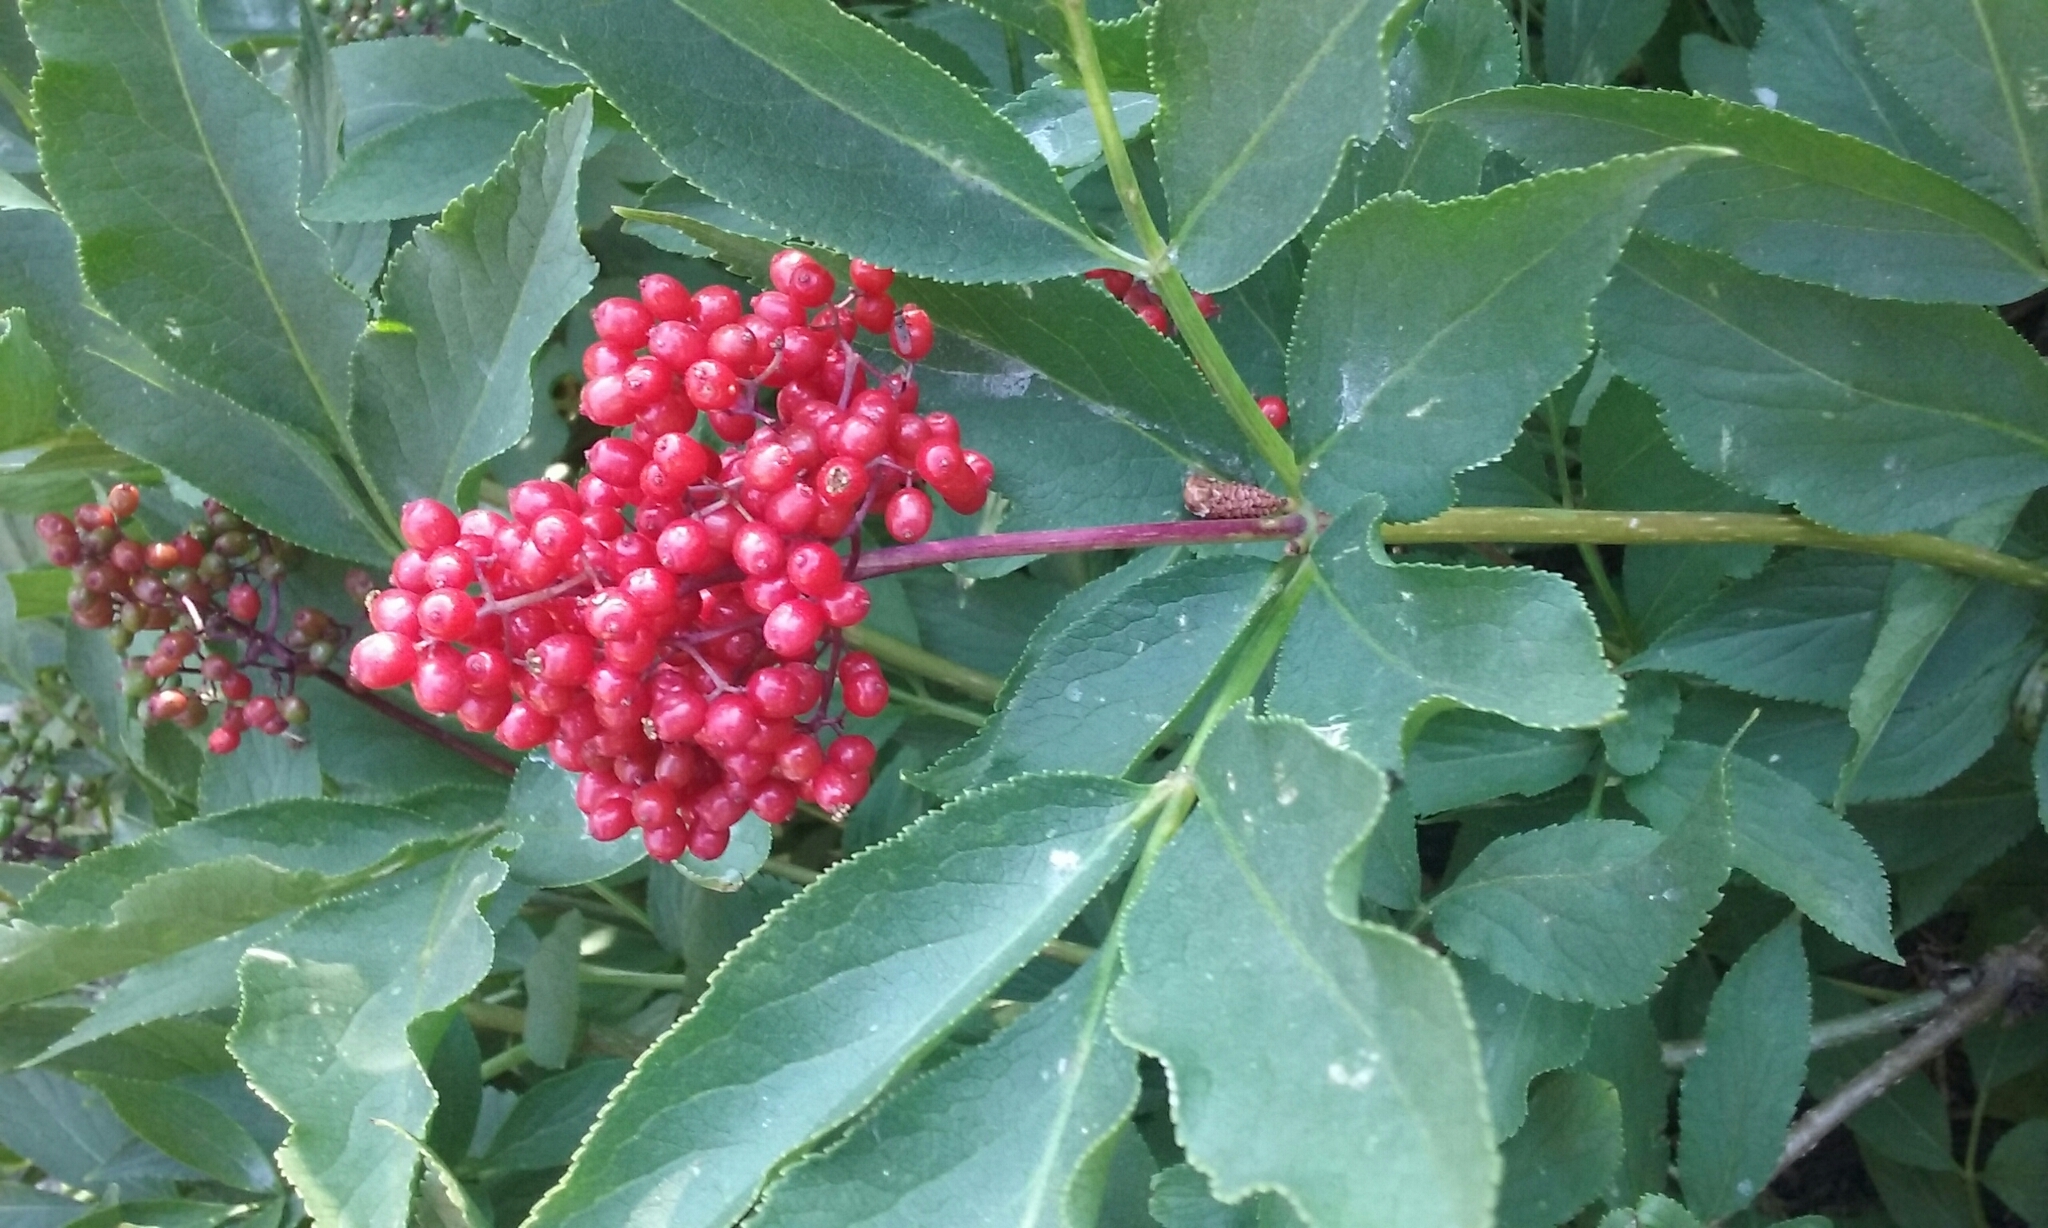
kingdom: Plantae
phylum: Tracheophyta
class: Magnoliopsida
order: Dipsacales
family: Viburnaceae
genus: Sambucus
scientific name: Sambucus racemosa
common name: Red-berried elder
